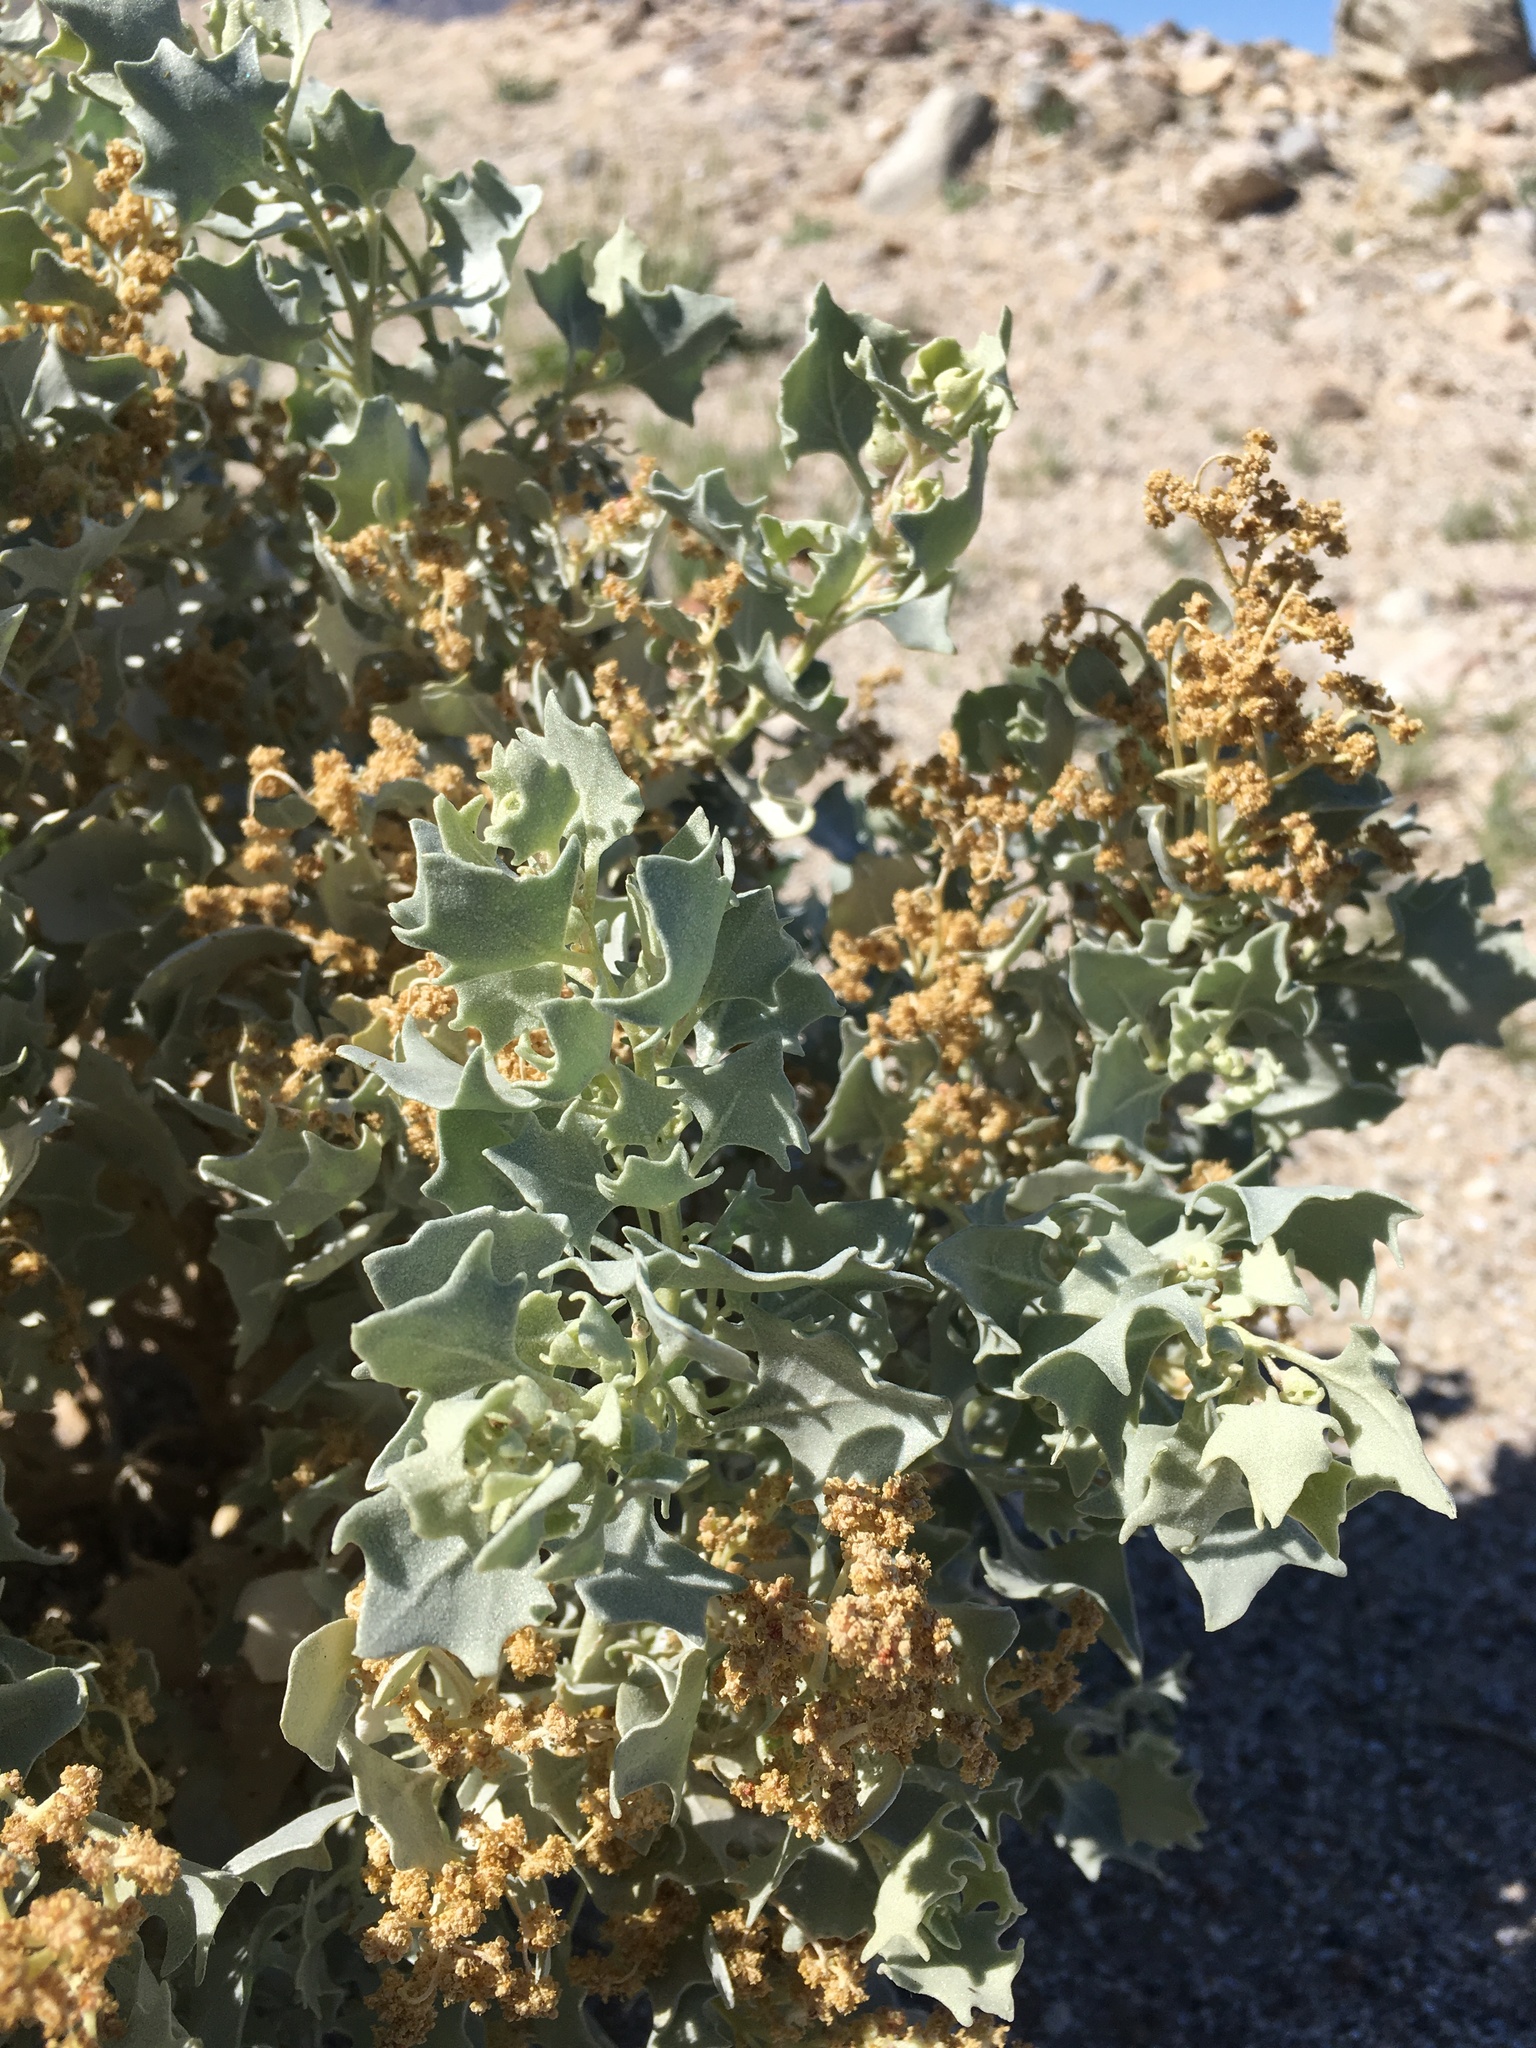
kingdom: Plantae
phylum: Tracheophyta
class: Magnoliopsida
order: Caryophyllales
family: Amaranthaceae
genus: Atriplex
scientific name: Atriplex hymenelytra
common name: Desert-holly
